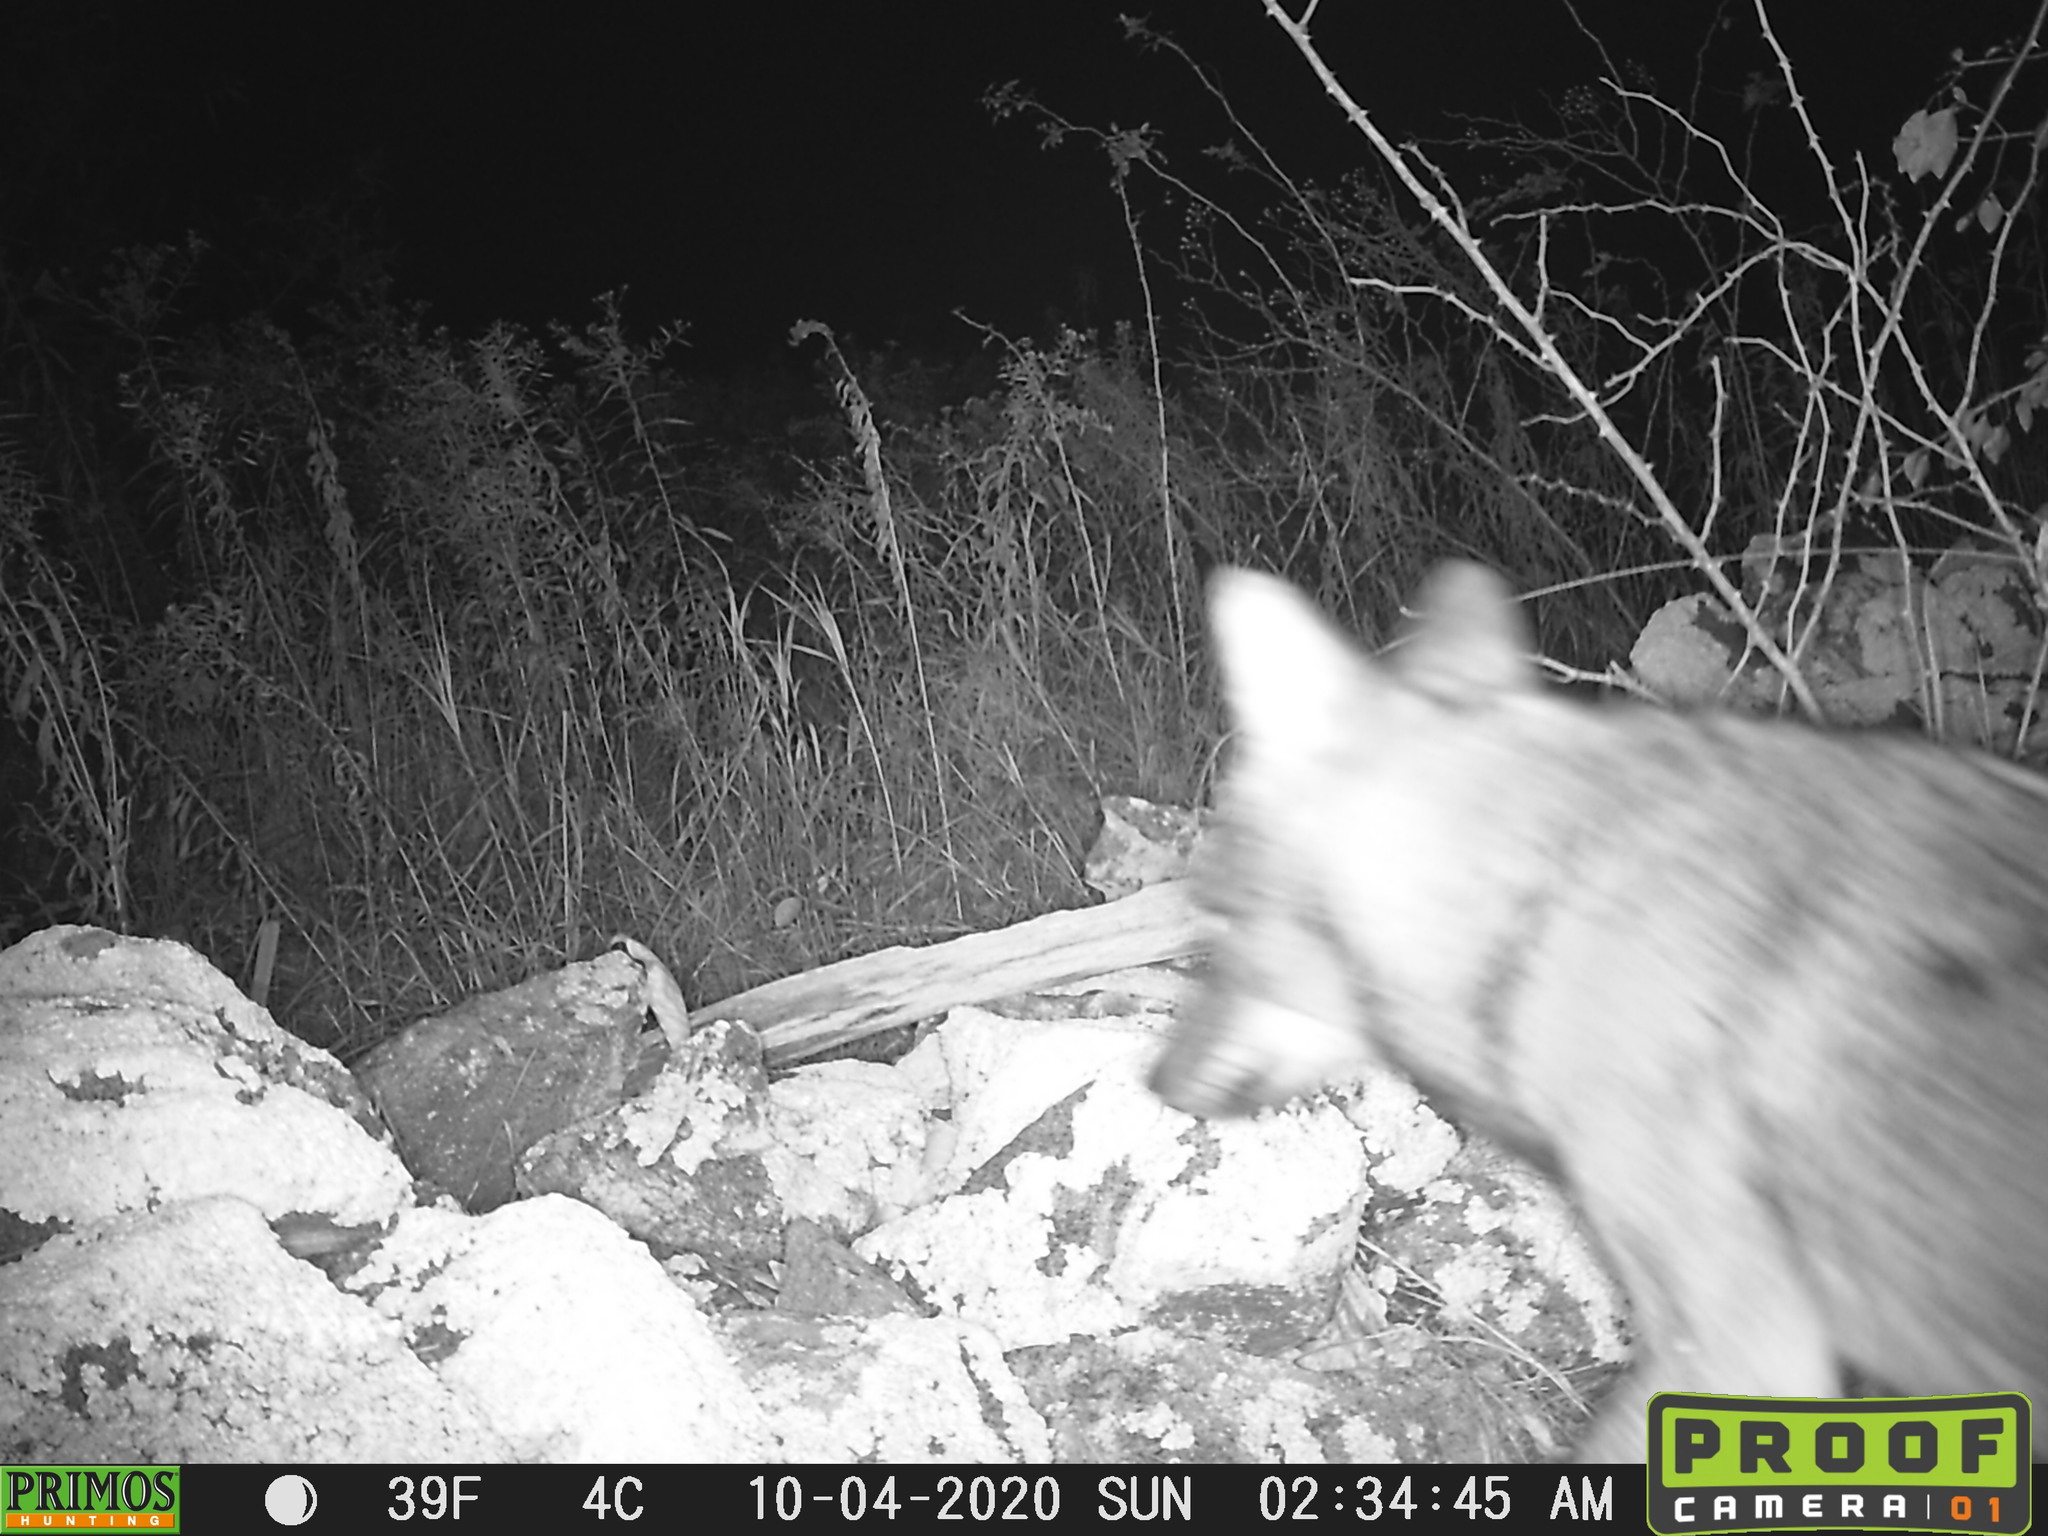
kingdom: Animalia
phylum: Chordata
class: Mammalia
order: Carnivora
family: Canidae
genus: Canis
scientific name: Canis latrans
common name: Coyote
